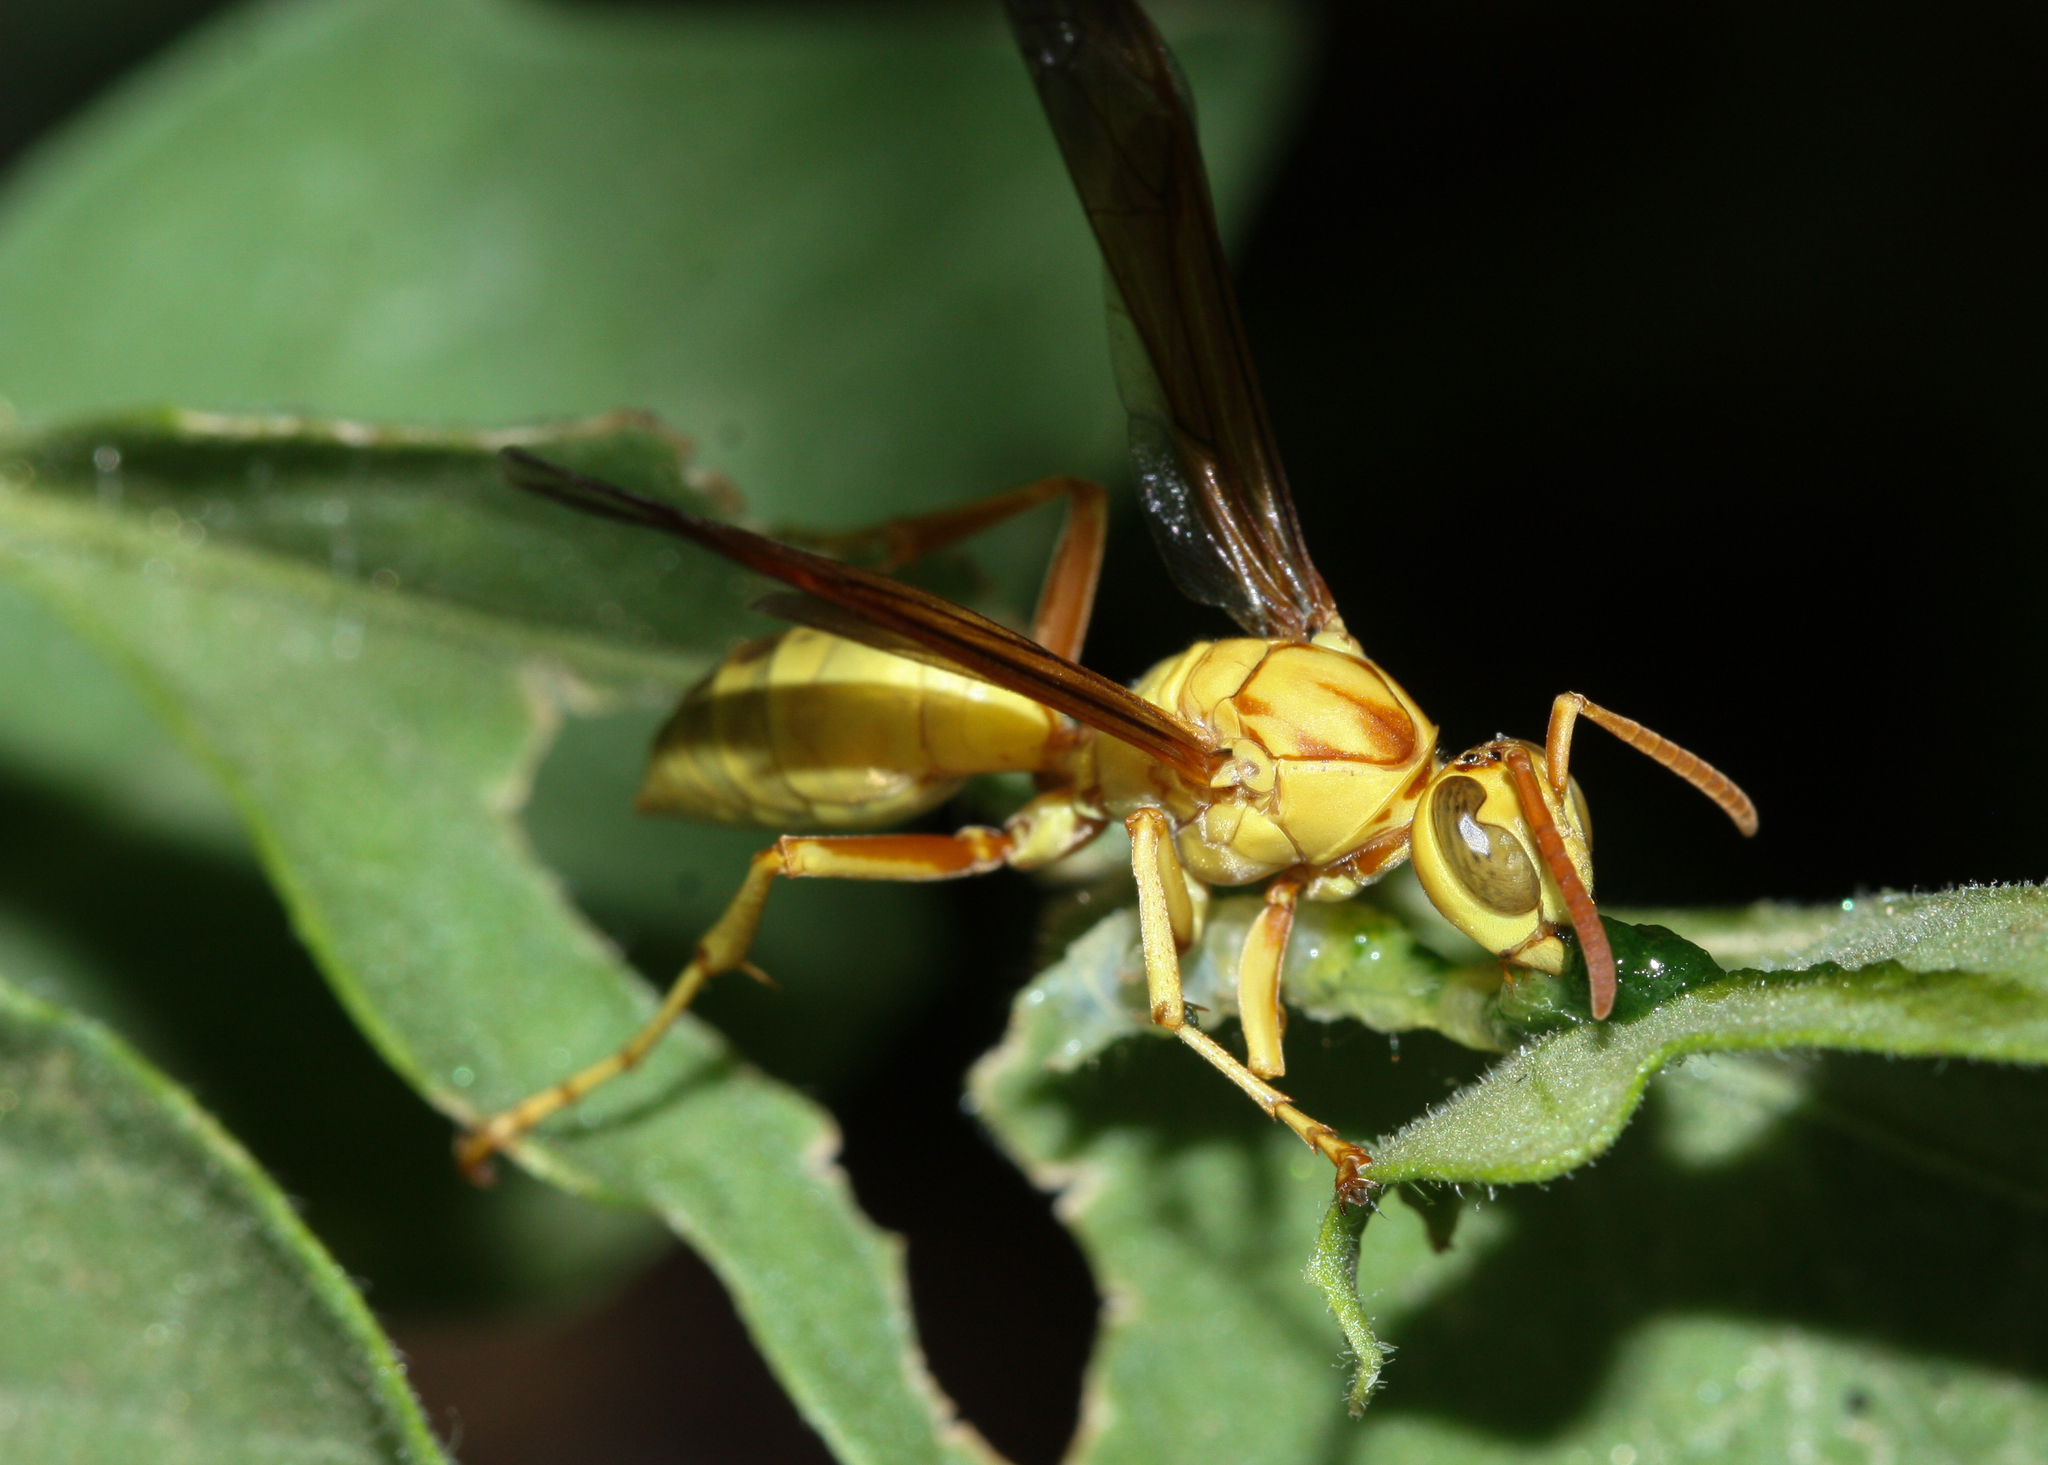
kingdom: Animalia
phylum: Arthropoda
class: Insecta
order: Hymenoptera
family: Eumenidae
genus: Polistes
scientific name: Polistes flavus
